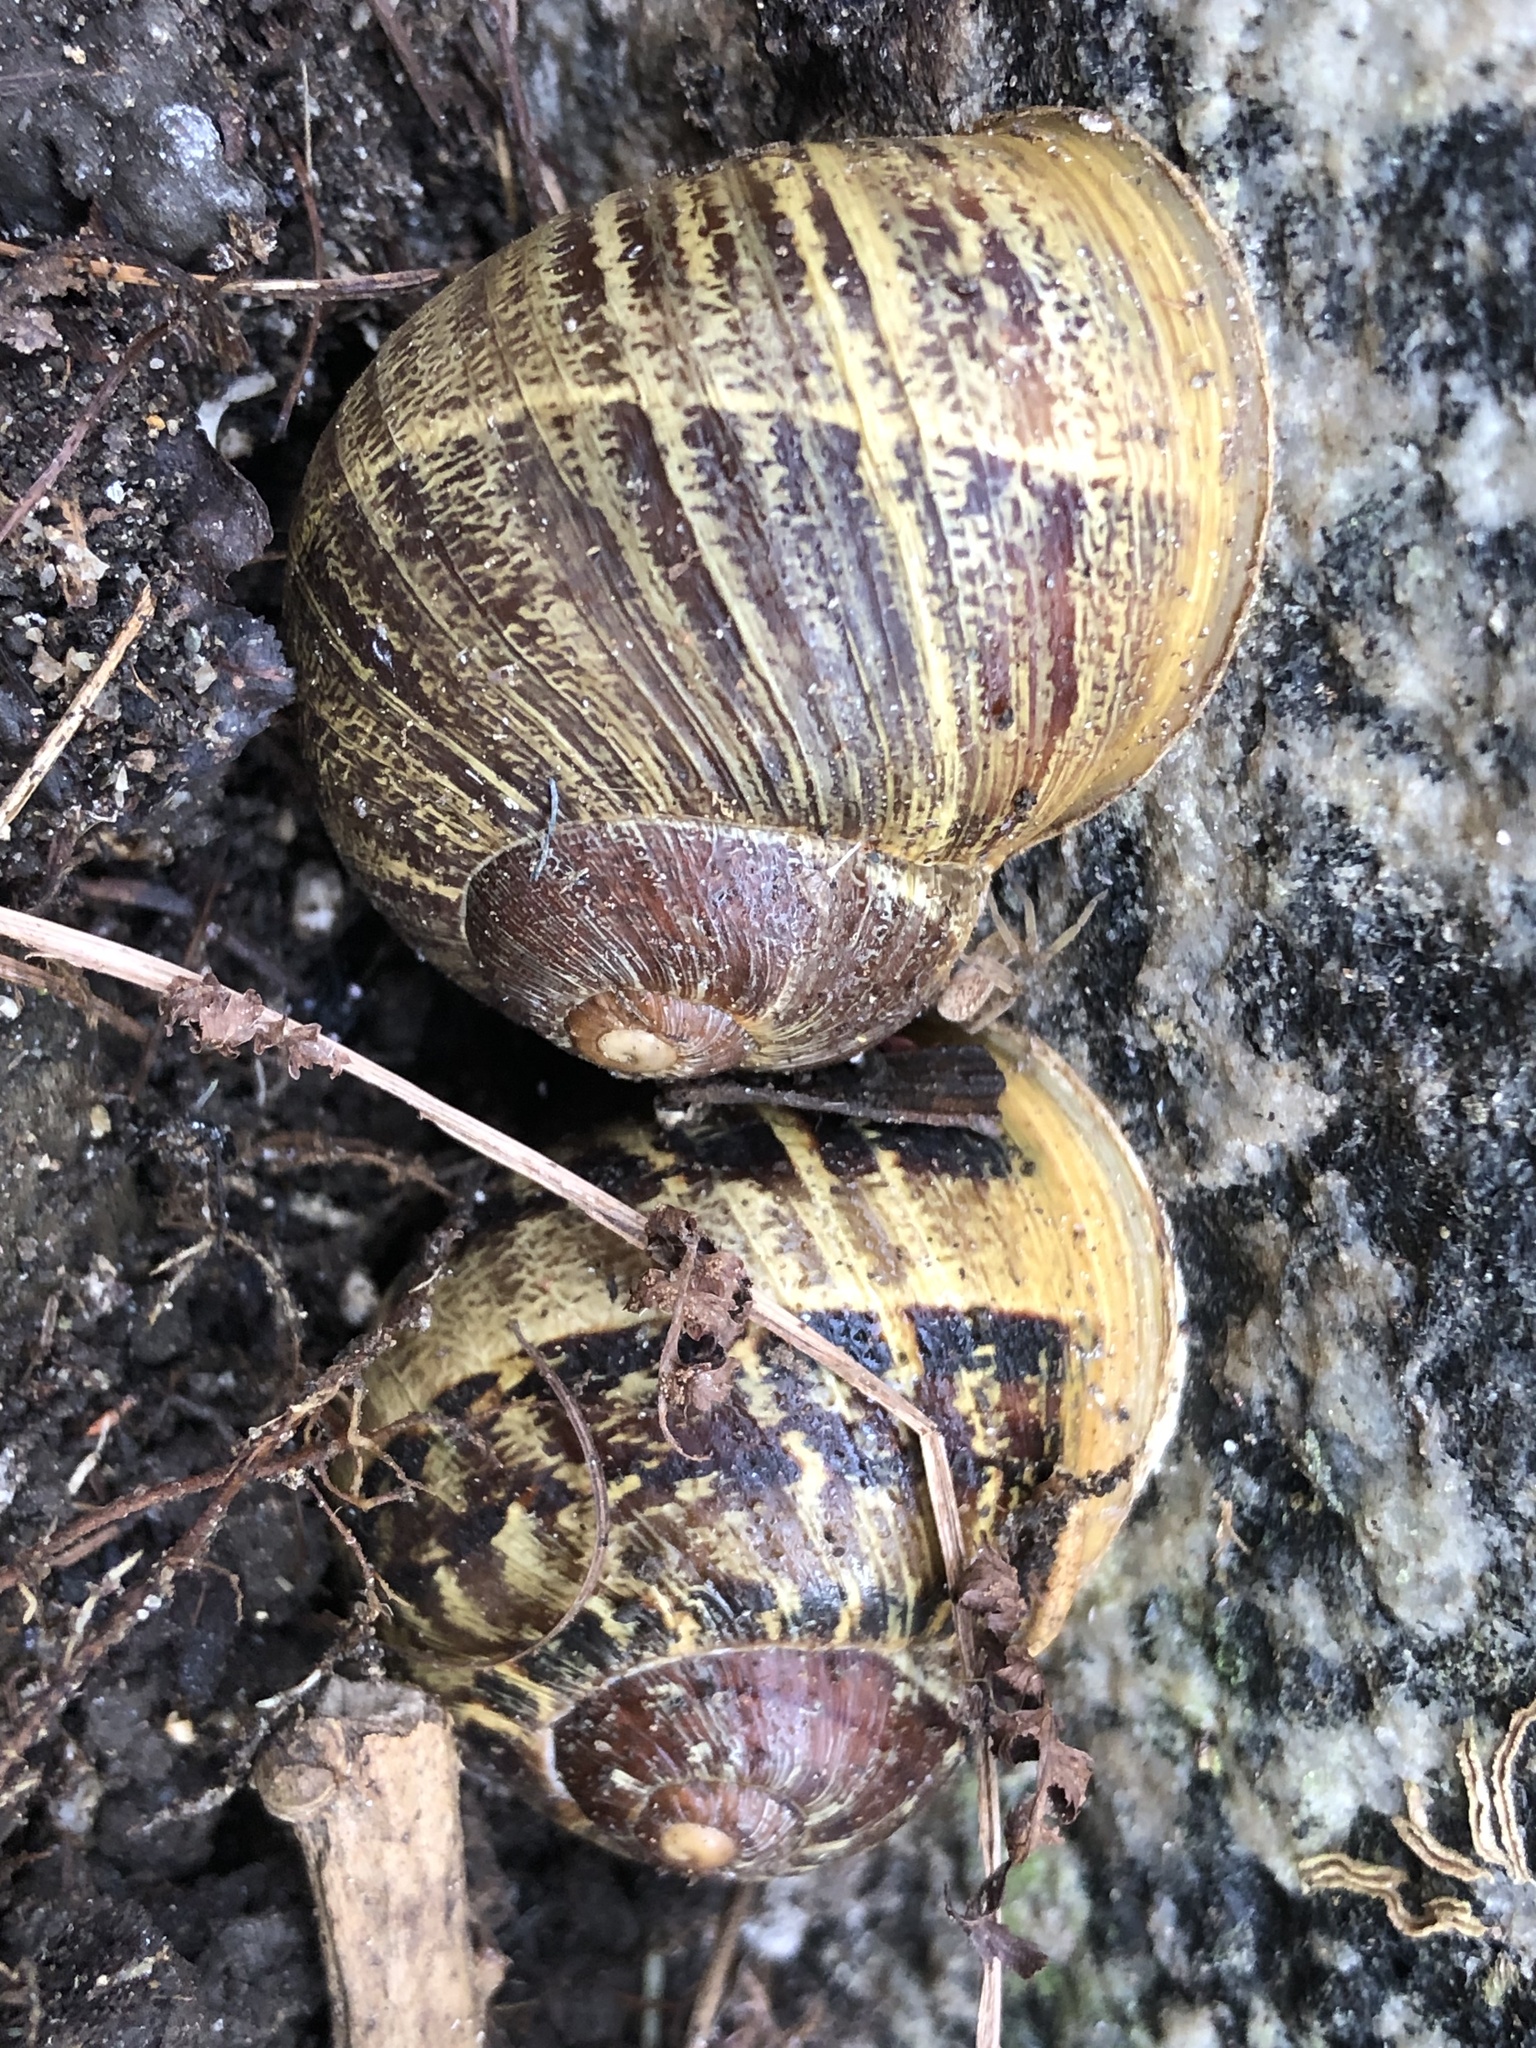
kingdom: Animalia
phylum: Mollusca
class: Gastropoda
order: Stylommatophora
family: Helicidae
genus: Cornu
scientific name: Cornu aspersum
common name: Brown garden snail
